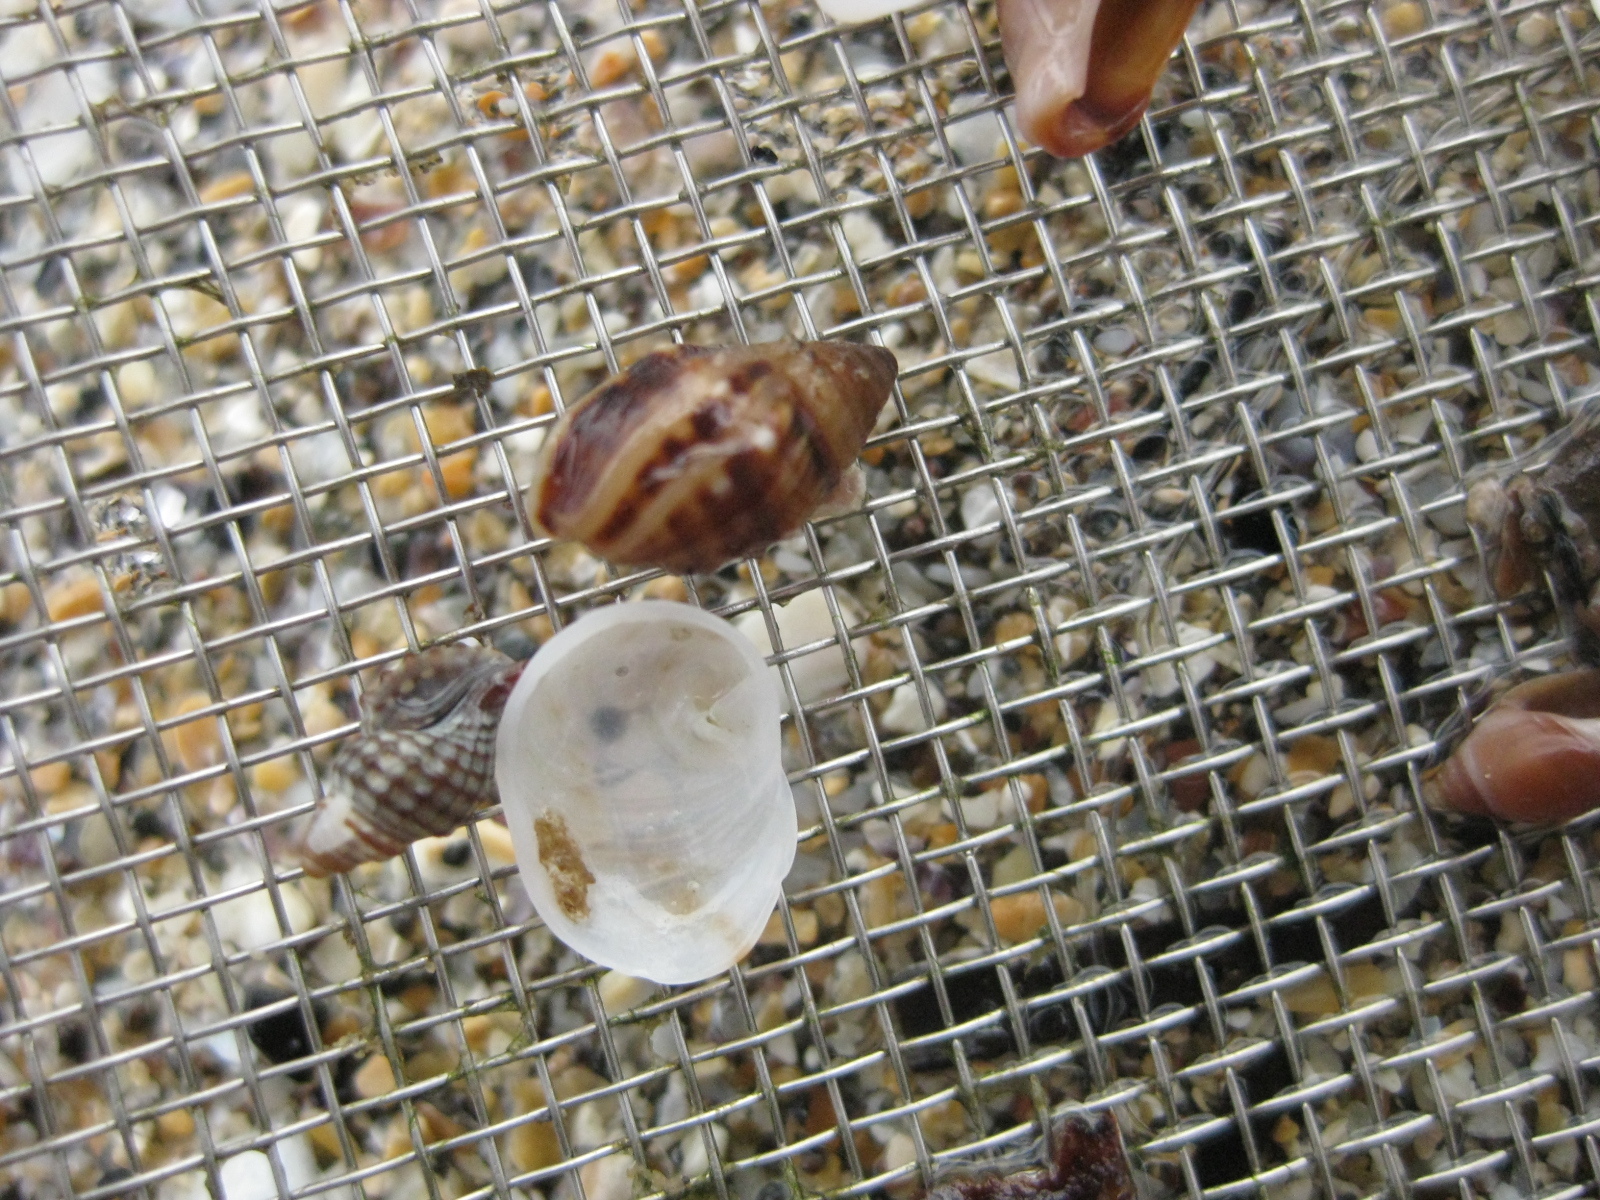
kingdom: Animalia
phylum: Mollusca
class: Gastropoda
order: Ellobiida
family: Ellobiidae
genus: Pleuroloba
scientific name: Pleuroloba costellaris
